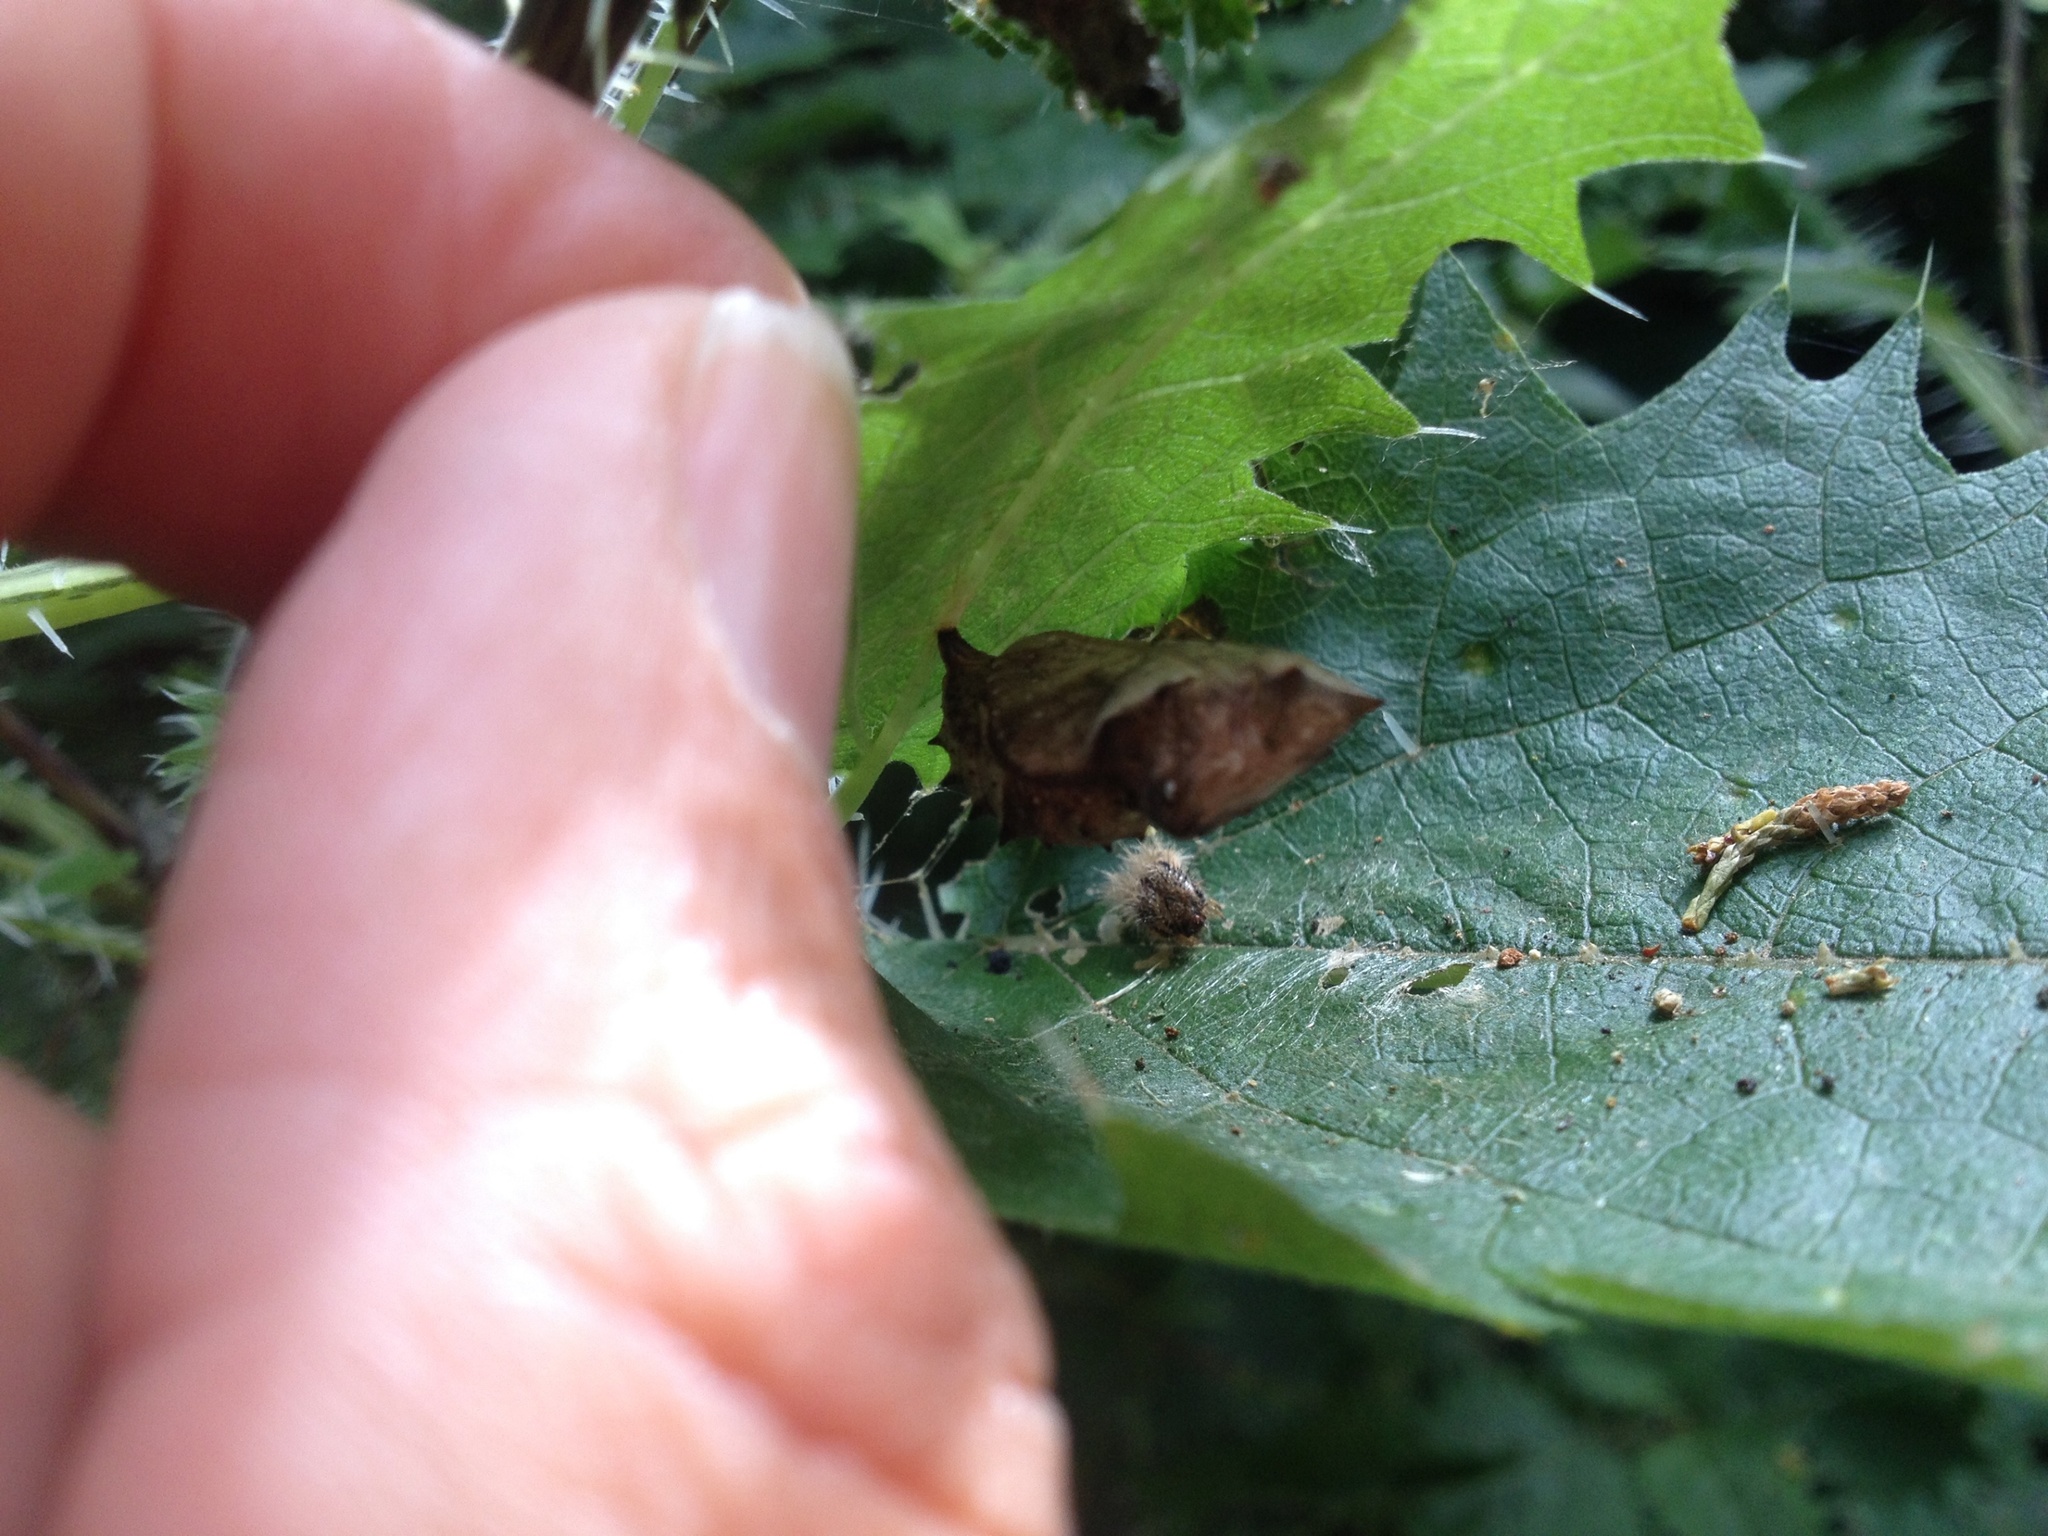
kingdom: Animalia
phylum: Arthropoda
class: Insecta
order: Lepidoptera
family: Nymphalidae
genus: Vanessa
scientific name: Vanessa gonerilla
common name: New zealand red admiral
